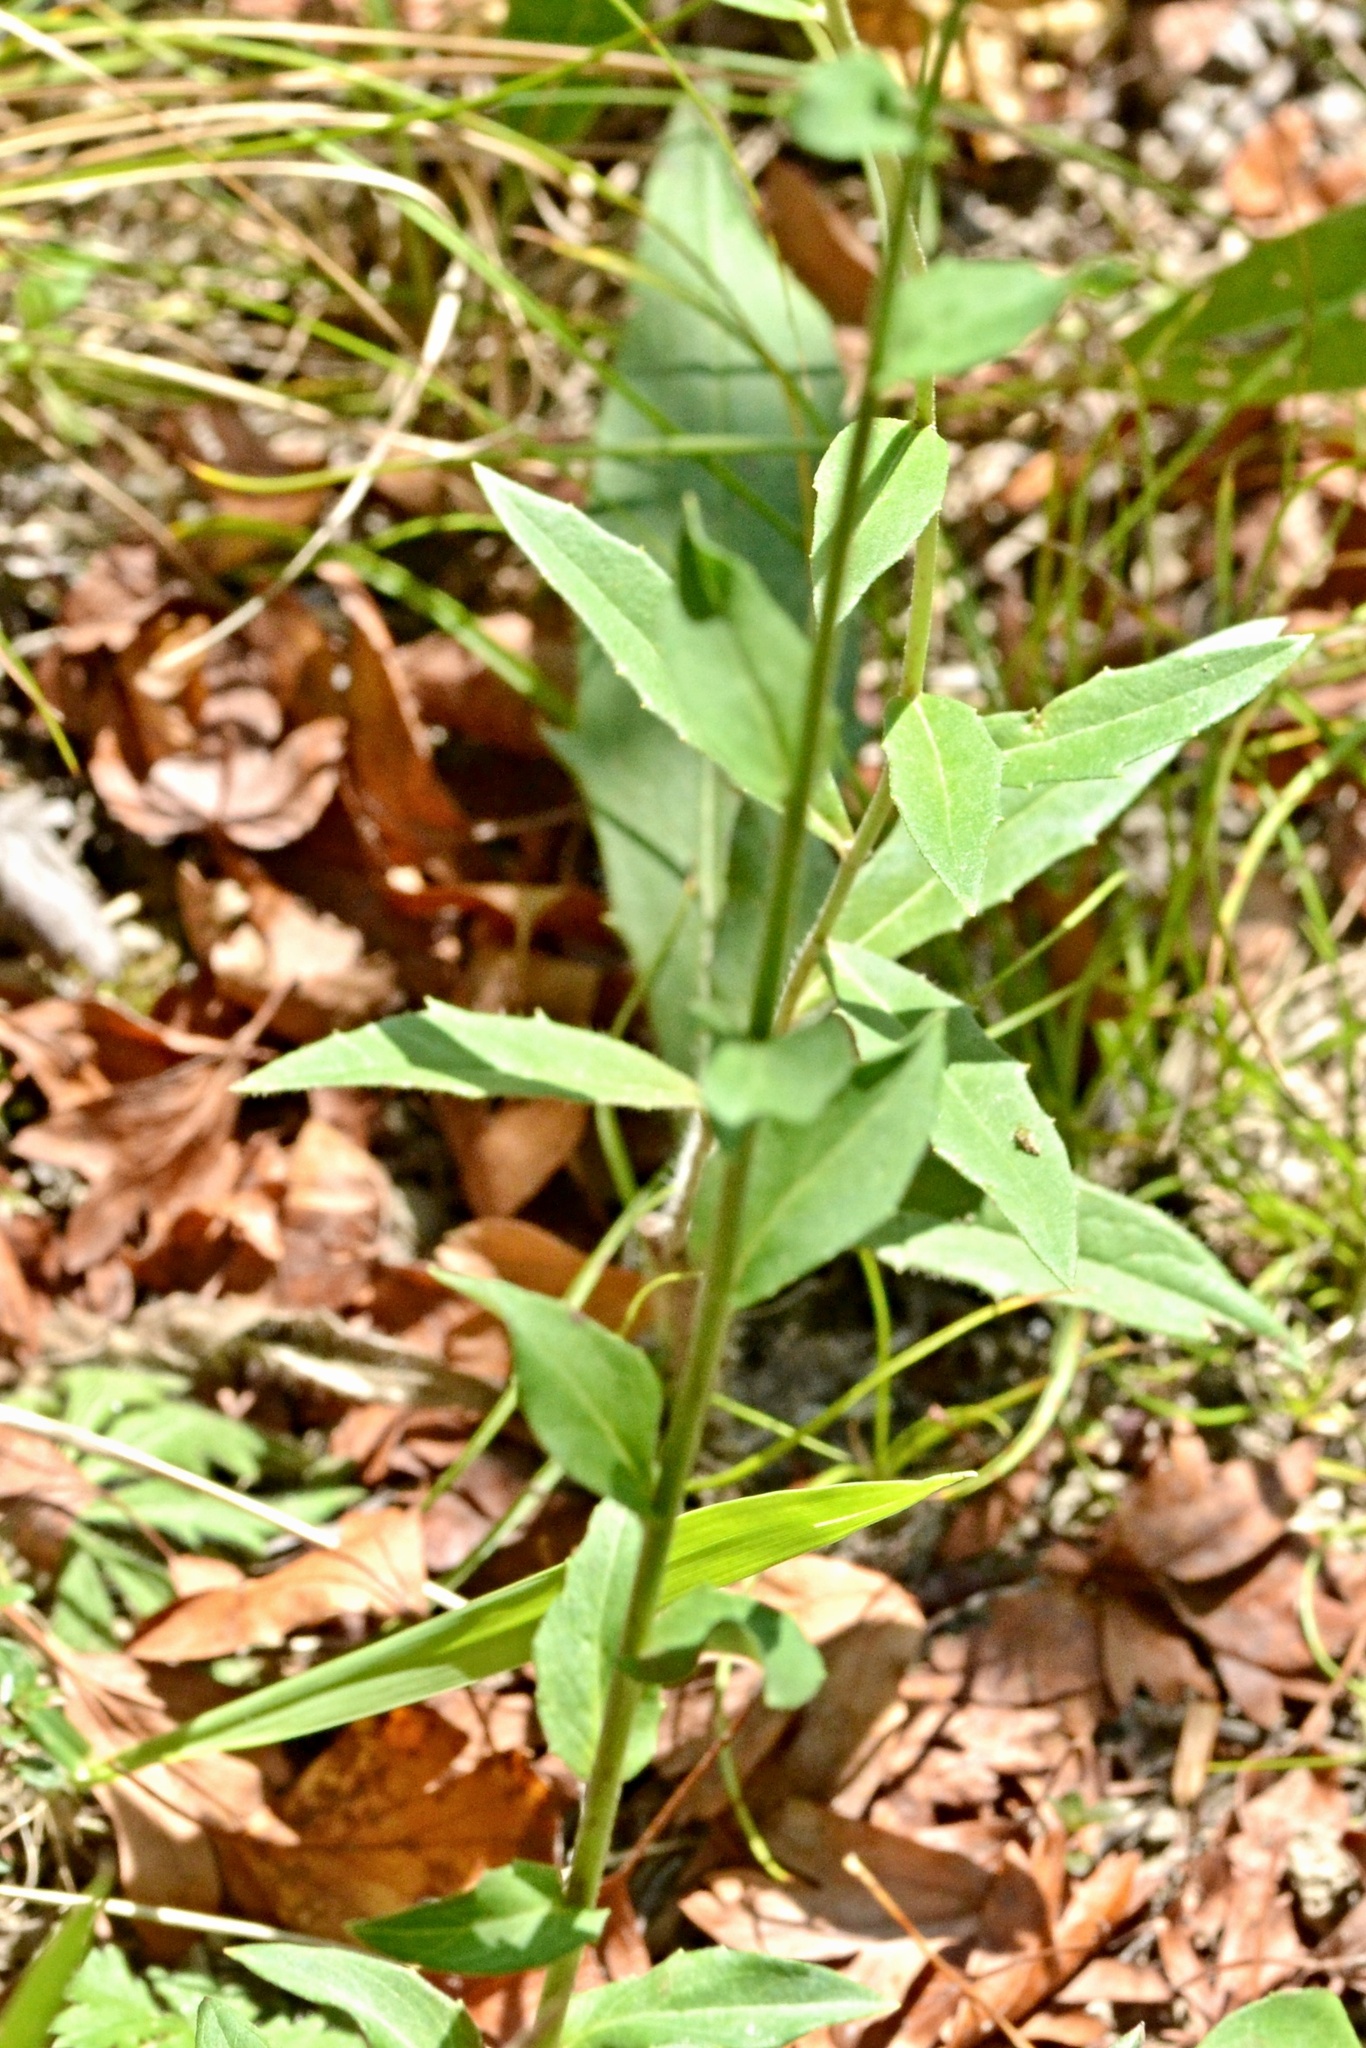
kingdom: Plantae
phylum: Tracheophyta
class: Magnoliopsida
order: Asterales
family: Asteraceae
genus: Hieracium
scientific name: Hieracium sabaudum
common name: New england hawkweed
